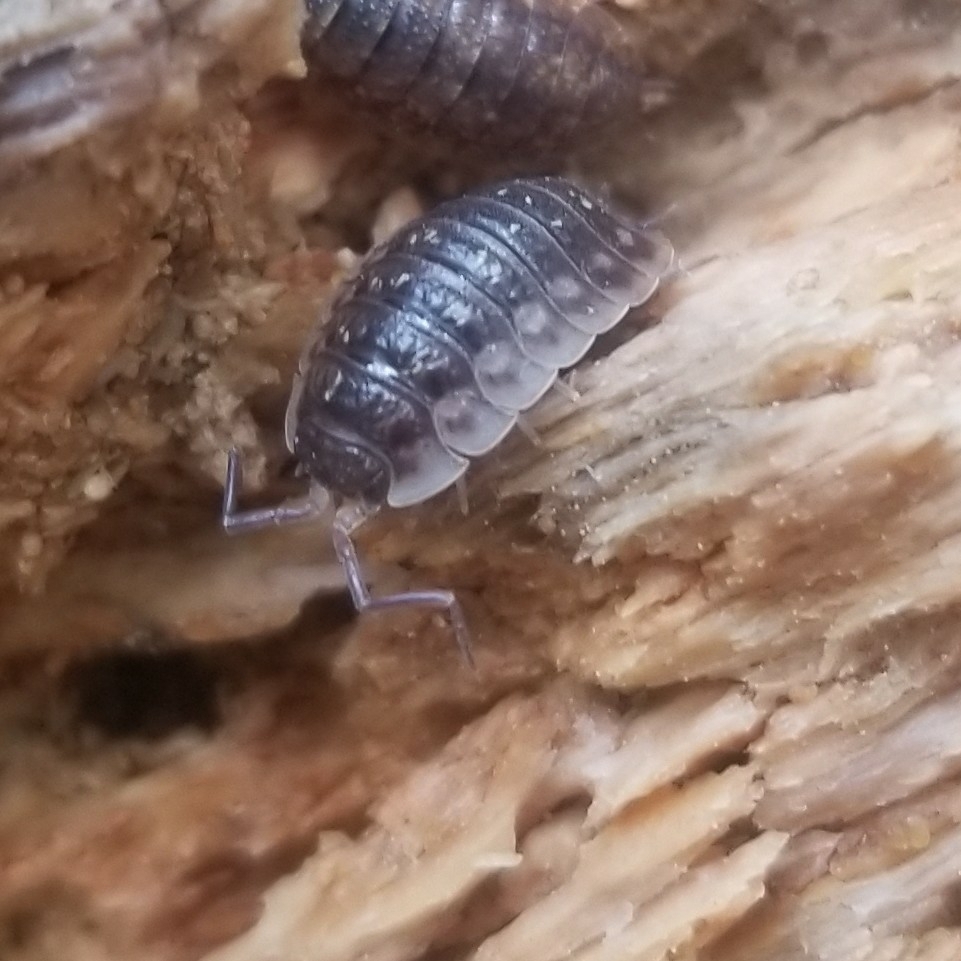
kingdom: Animalia
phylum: Arthropoda
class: Malacostraca
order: Isopoda
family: Oniscidae
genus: Oniscus
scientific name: Oniscus asellus
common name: Common shiny woodlouse
